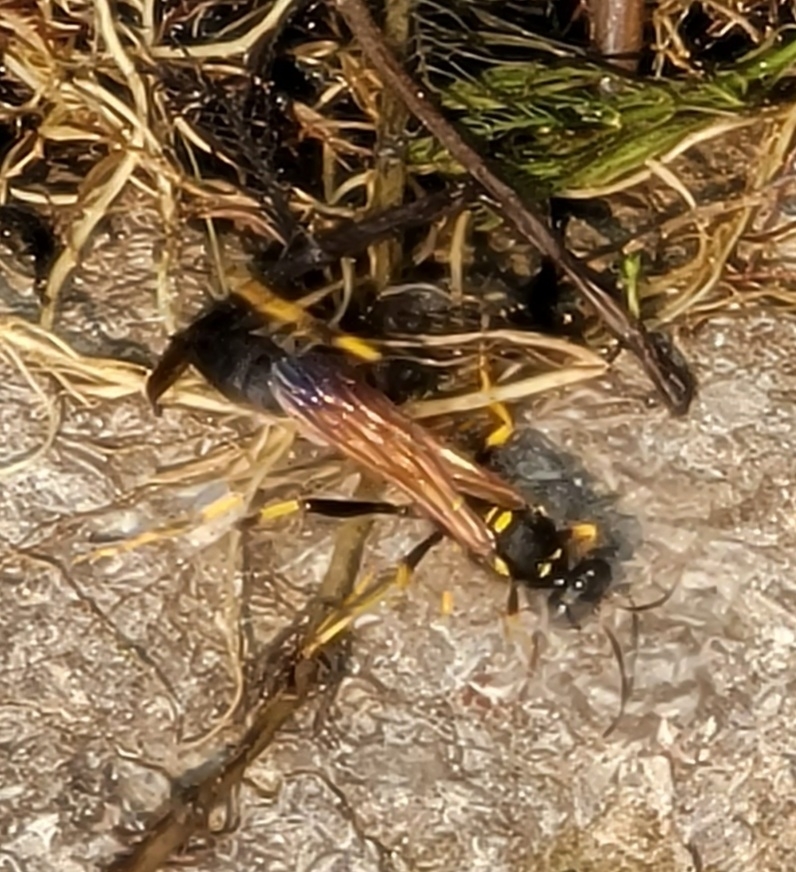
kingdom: Animalia
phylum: Arthropoda
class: Insecta
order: Hymenoptera
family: Sphecidae
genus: Sceliphron
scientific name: Sceliphron caementarium
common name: Mud dauber
